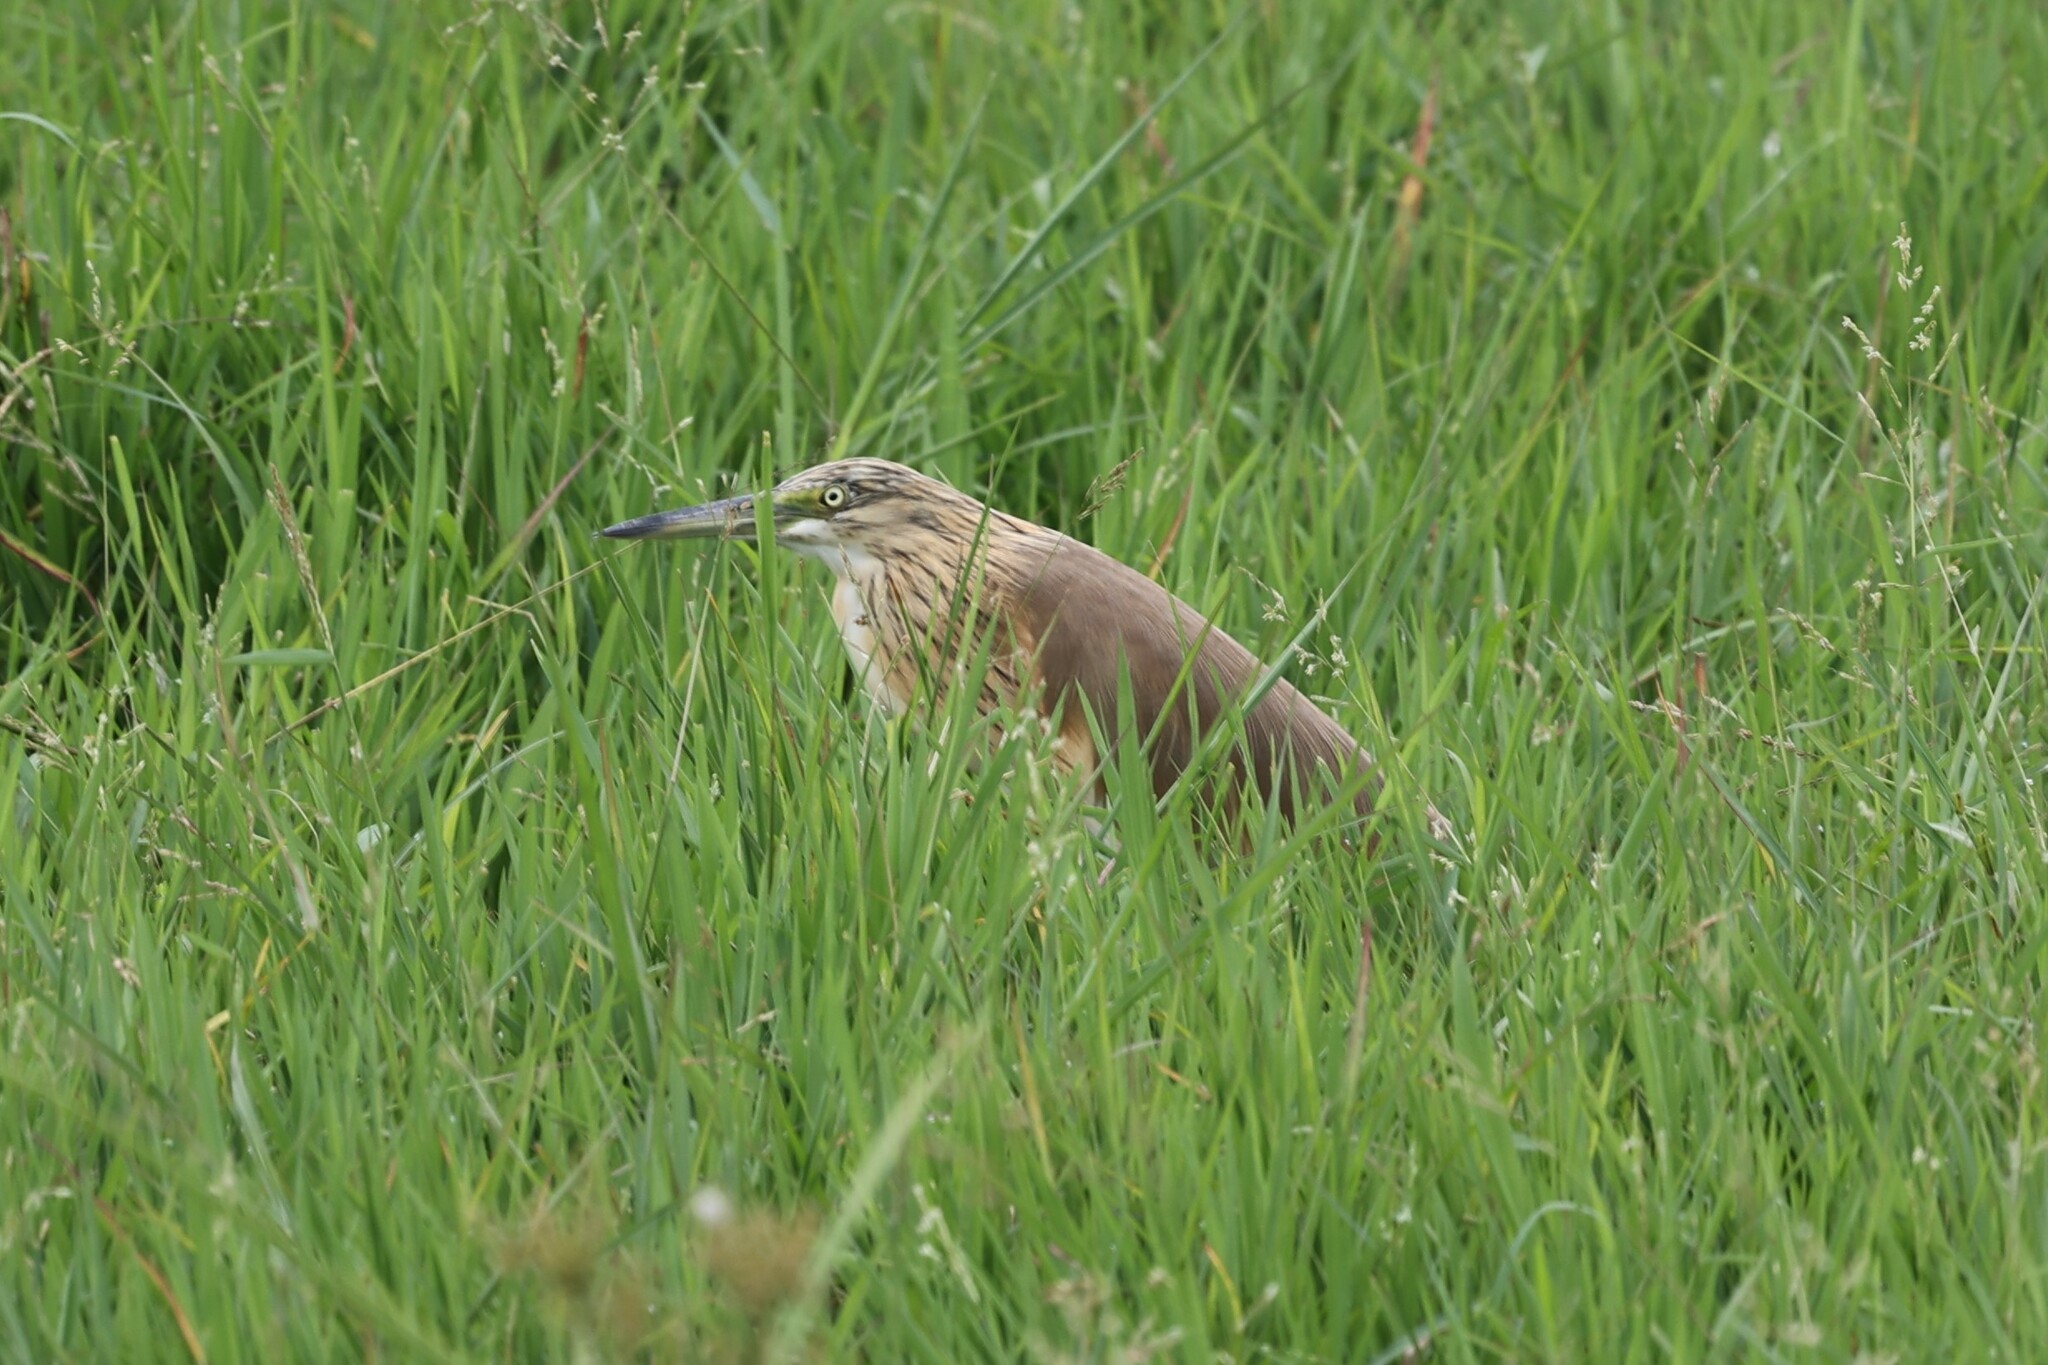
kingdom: Animalia
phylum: Chordata
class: Aves
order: Pelecaniformes
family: Ardeidae
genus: Ardeola
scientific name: Ardeola ralloides
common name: Squacco heron
